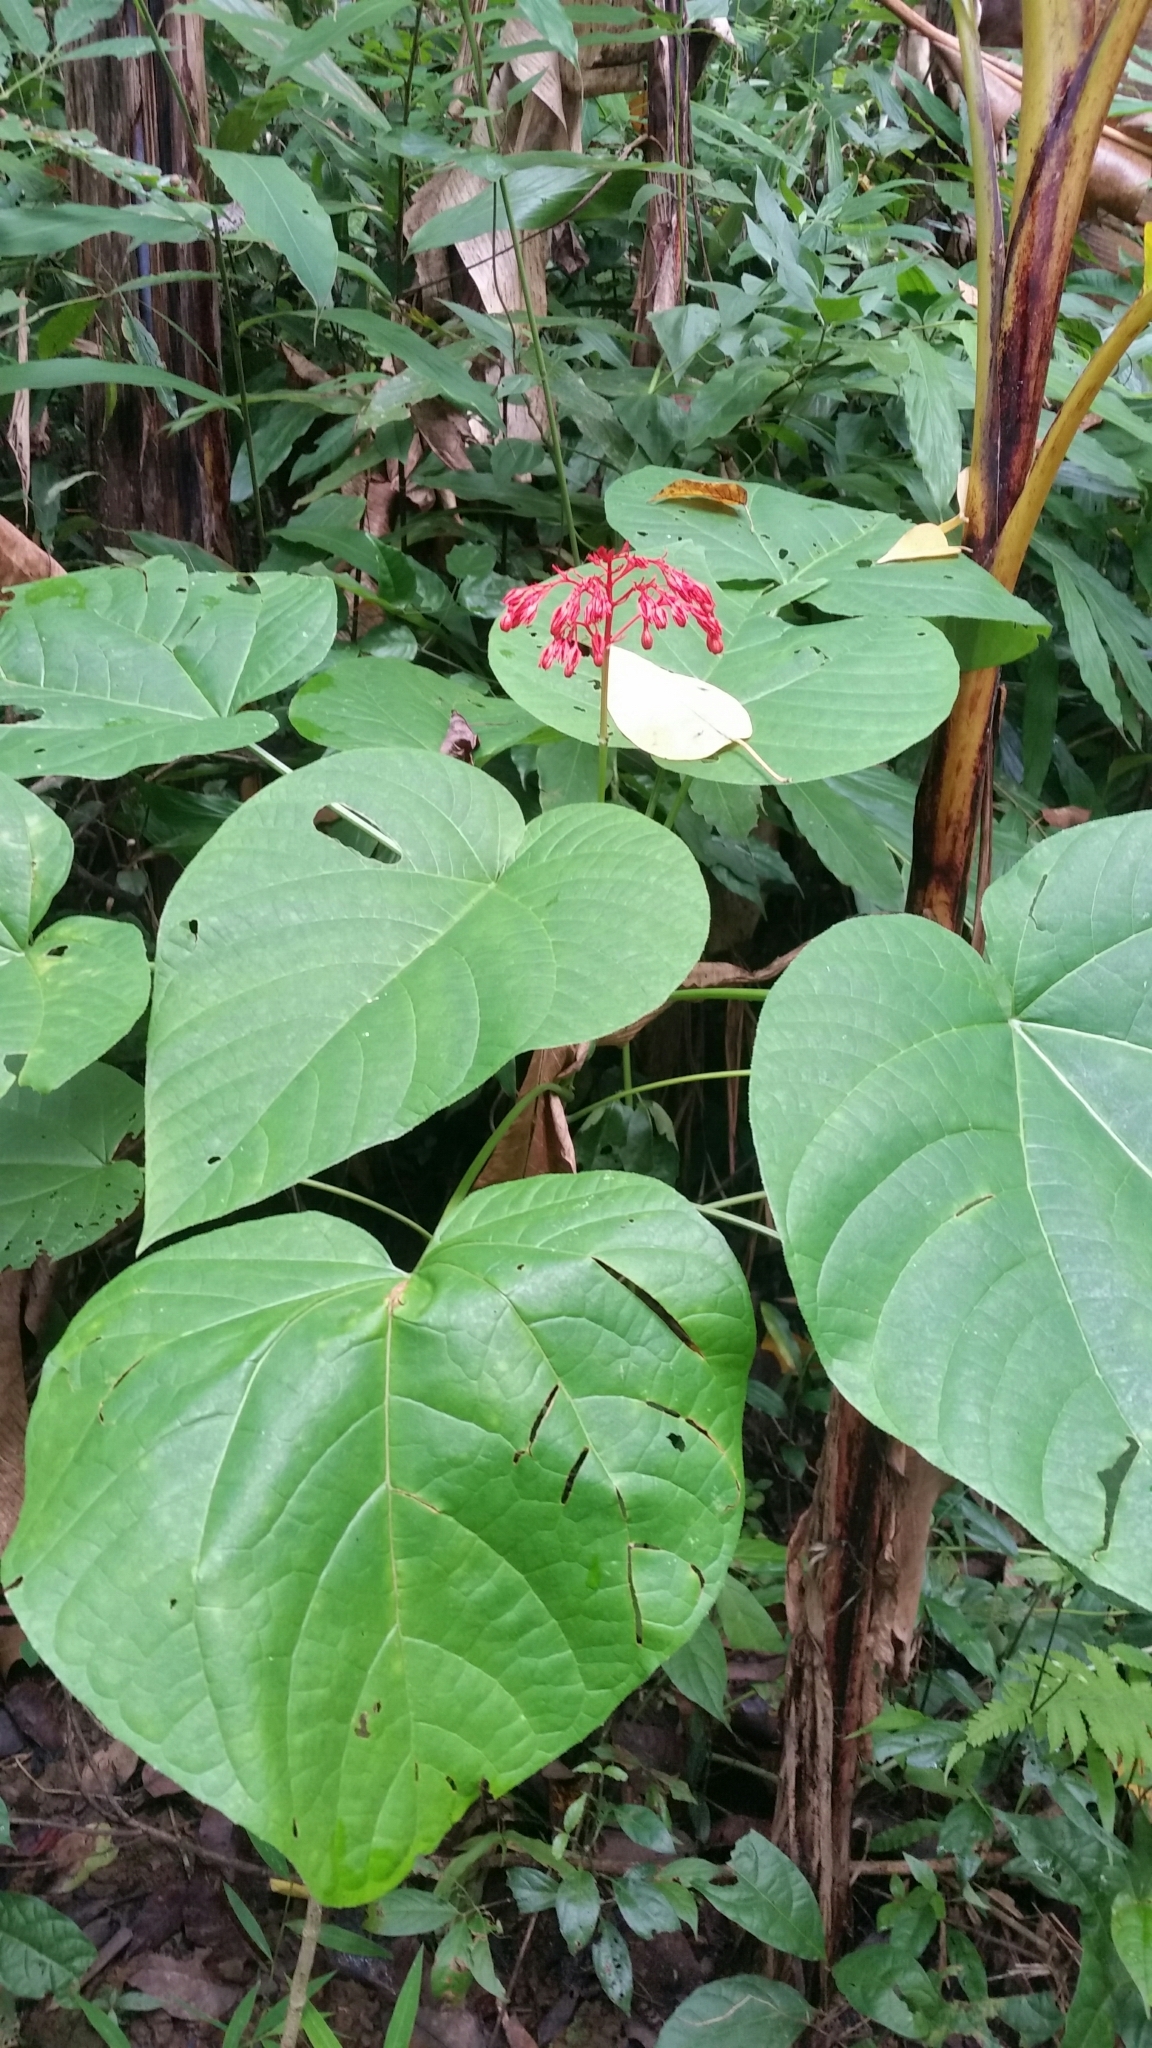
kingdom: Plantae
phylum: Tracheophyta
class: Magnoliopsida
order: Lamiales
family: Lamiaceae
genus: Clerodendrum
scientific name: Clerodendrum japonicum
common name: Japanese glorybower
